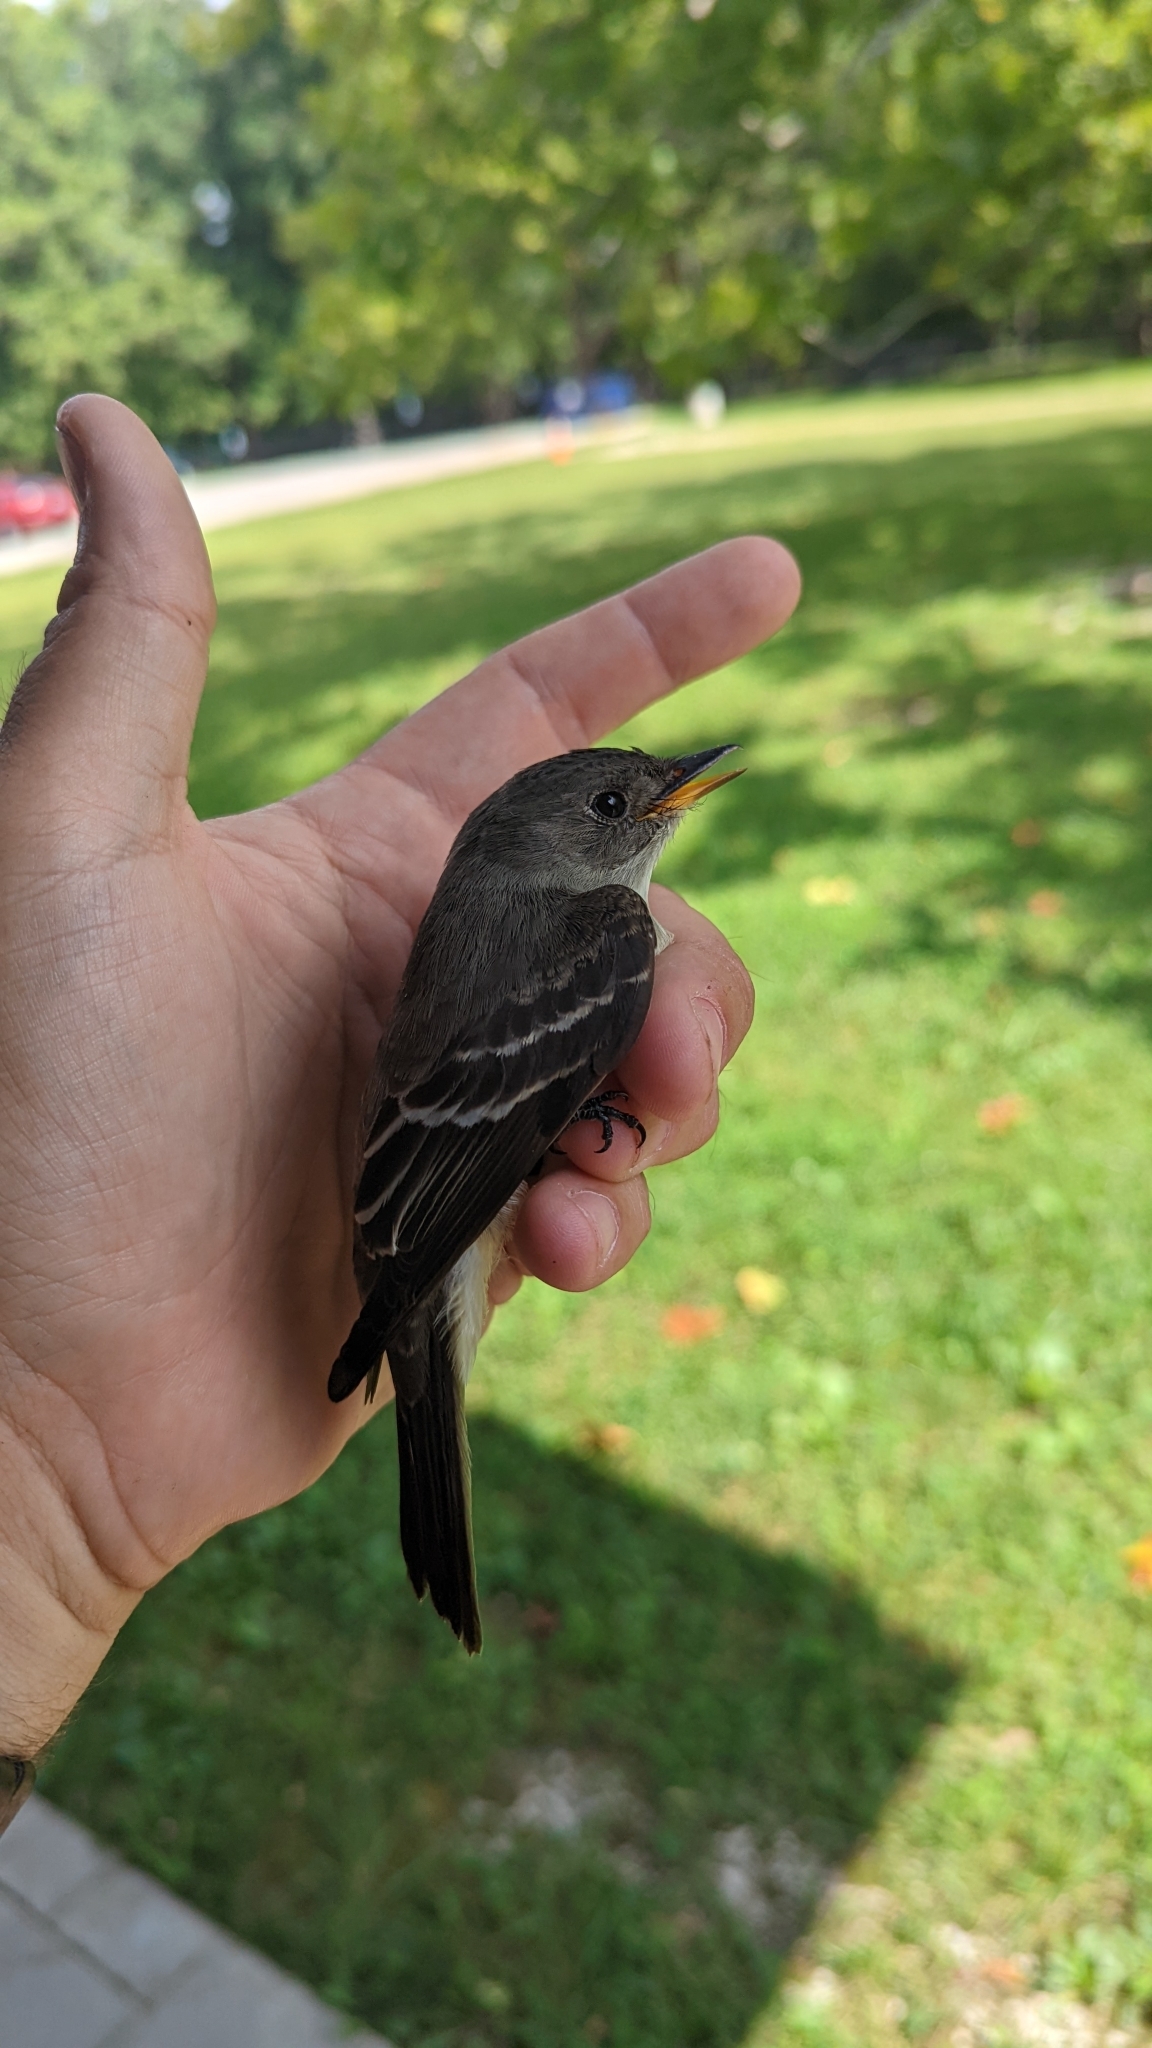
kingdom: Animalia
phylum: Chordata
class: Aves
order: Passeriformes
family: Tyrannidae
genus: Contopus
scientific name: Contopus virens
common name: Eastern wood-pewee
